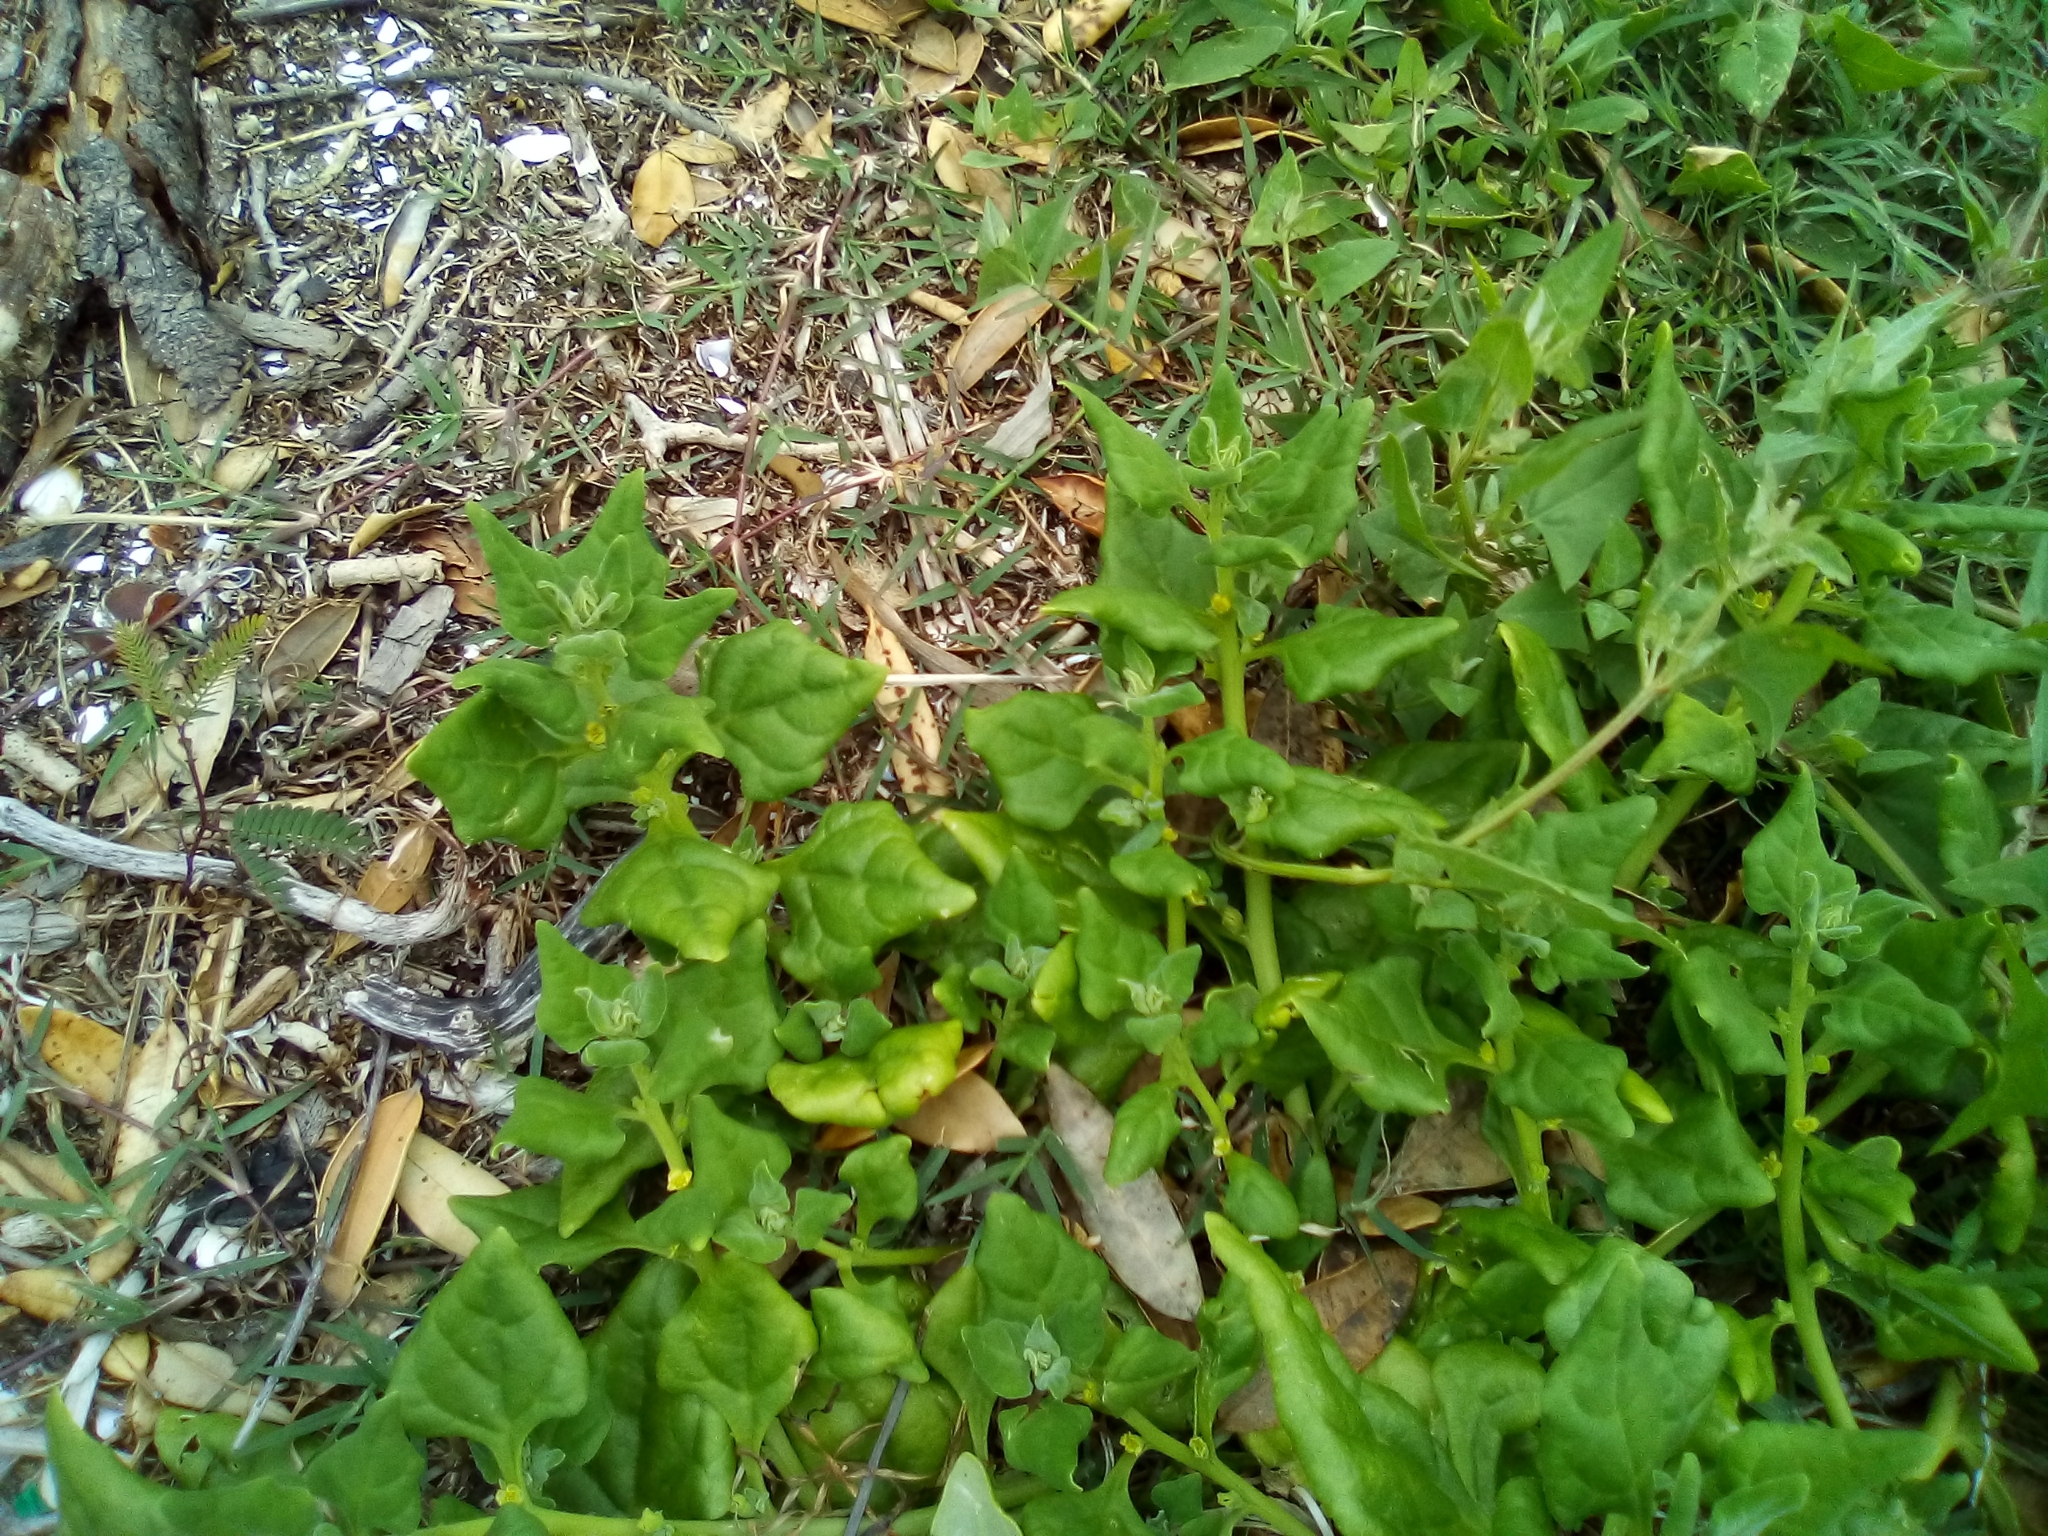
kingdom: Plantae
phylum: Tracheophyta
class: Magnoliopsida
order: Caryophyllales
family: Aizoaceae
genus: Tetragonia
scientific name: Tetragonia tetragonoides
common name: New zealand-spinach
